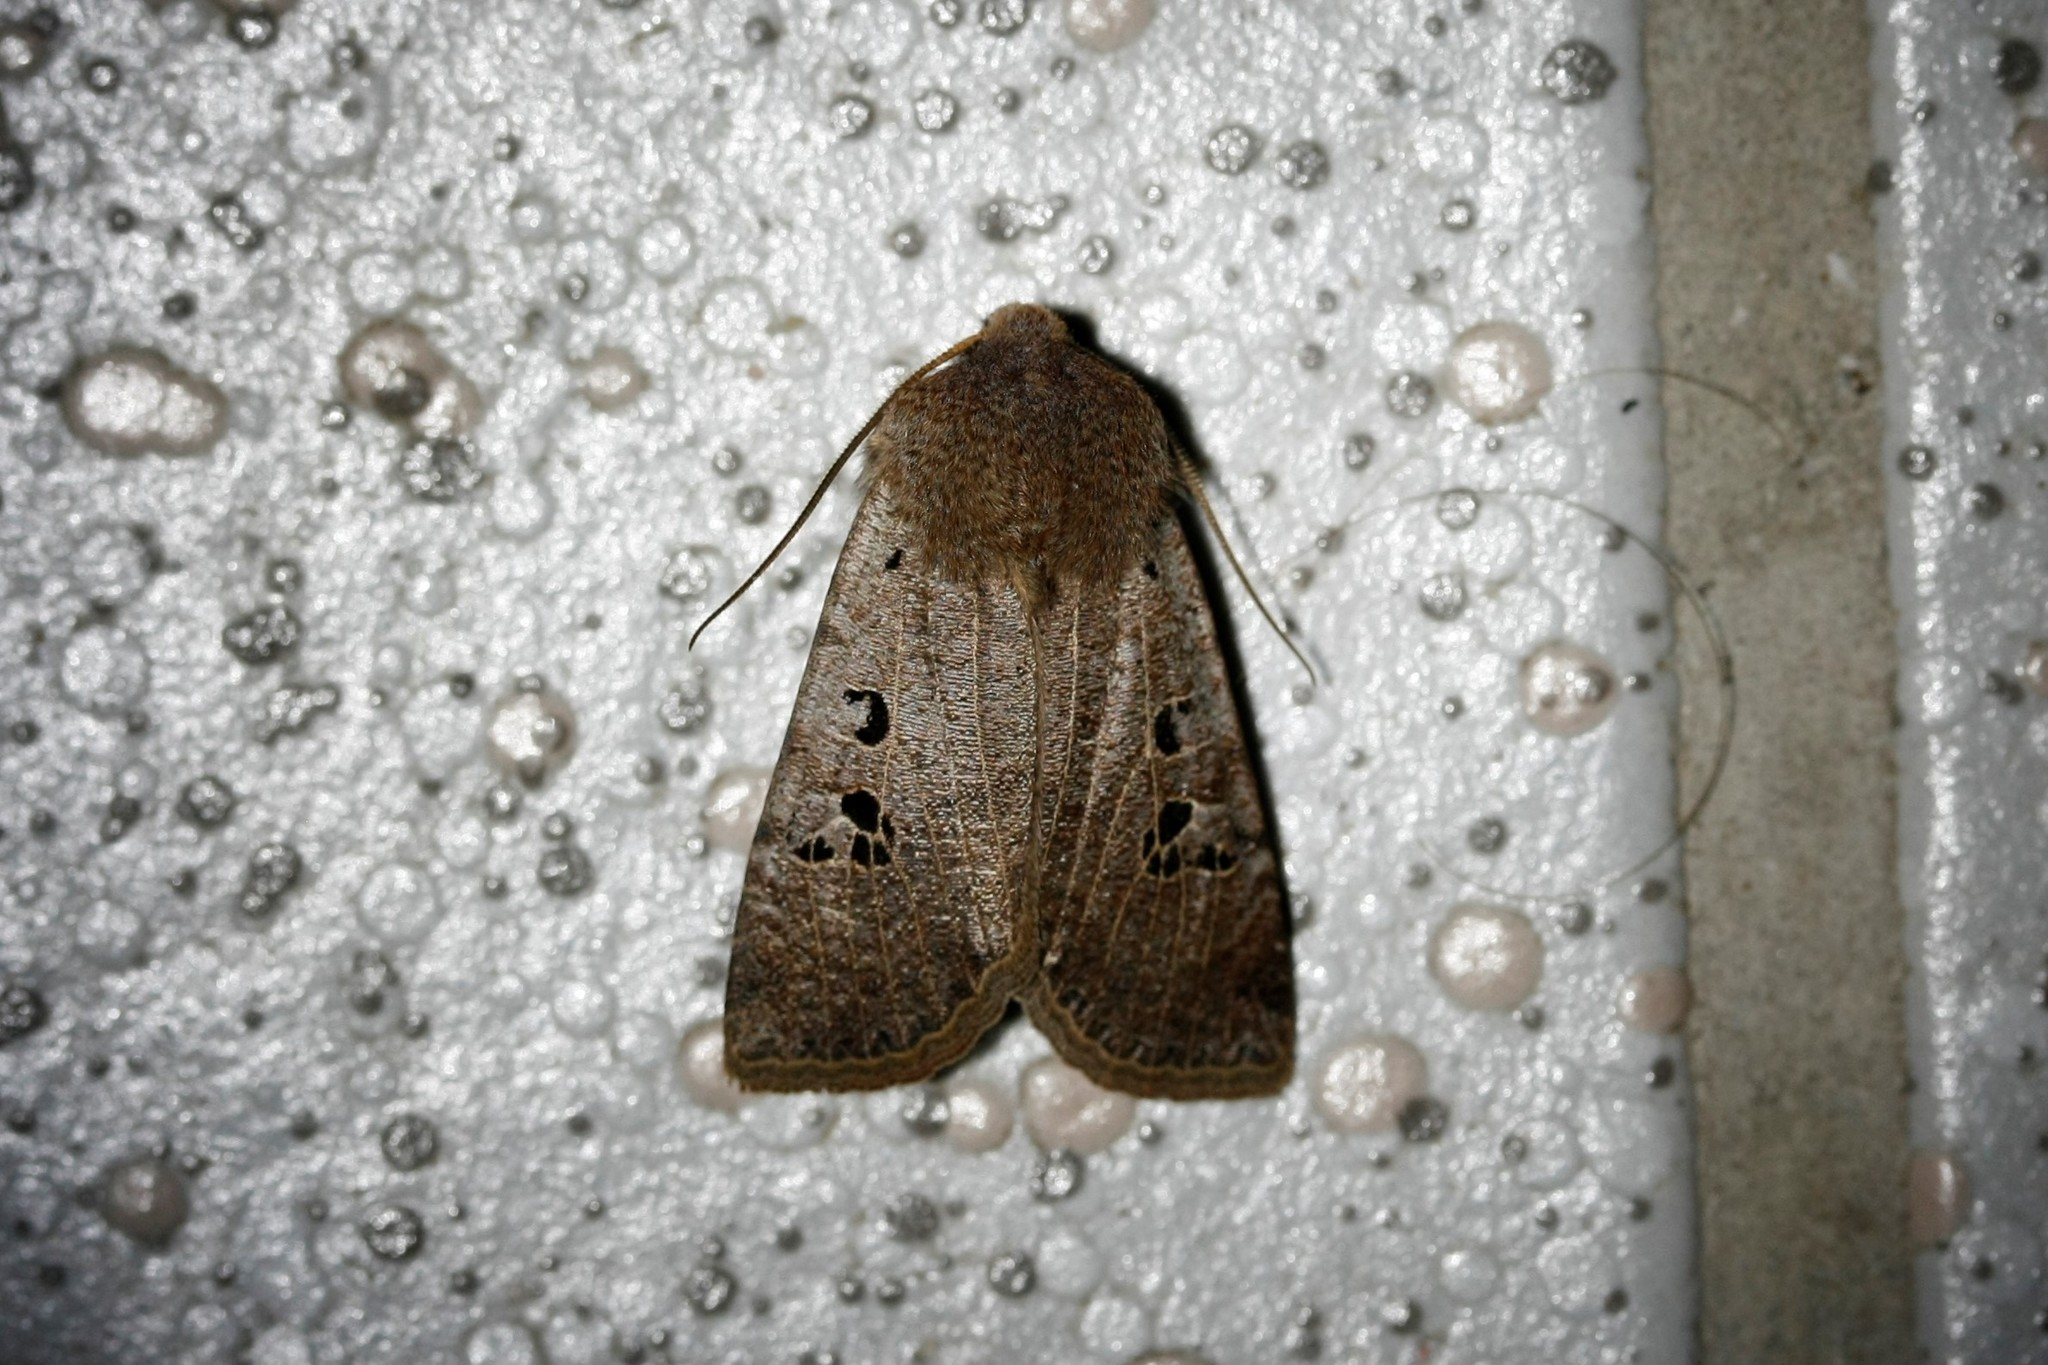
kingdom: Animalia
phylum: Arthropoda
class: Insecta
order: Lepidoptera
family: Noctuidae
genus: Conistra
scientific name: Conistra rubiginosa
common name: Black-spotted chestnut
